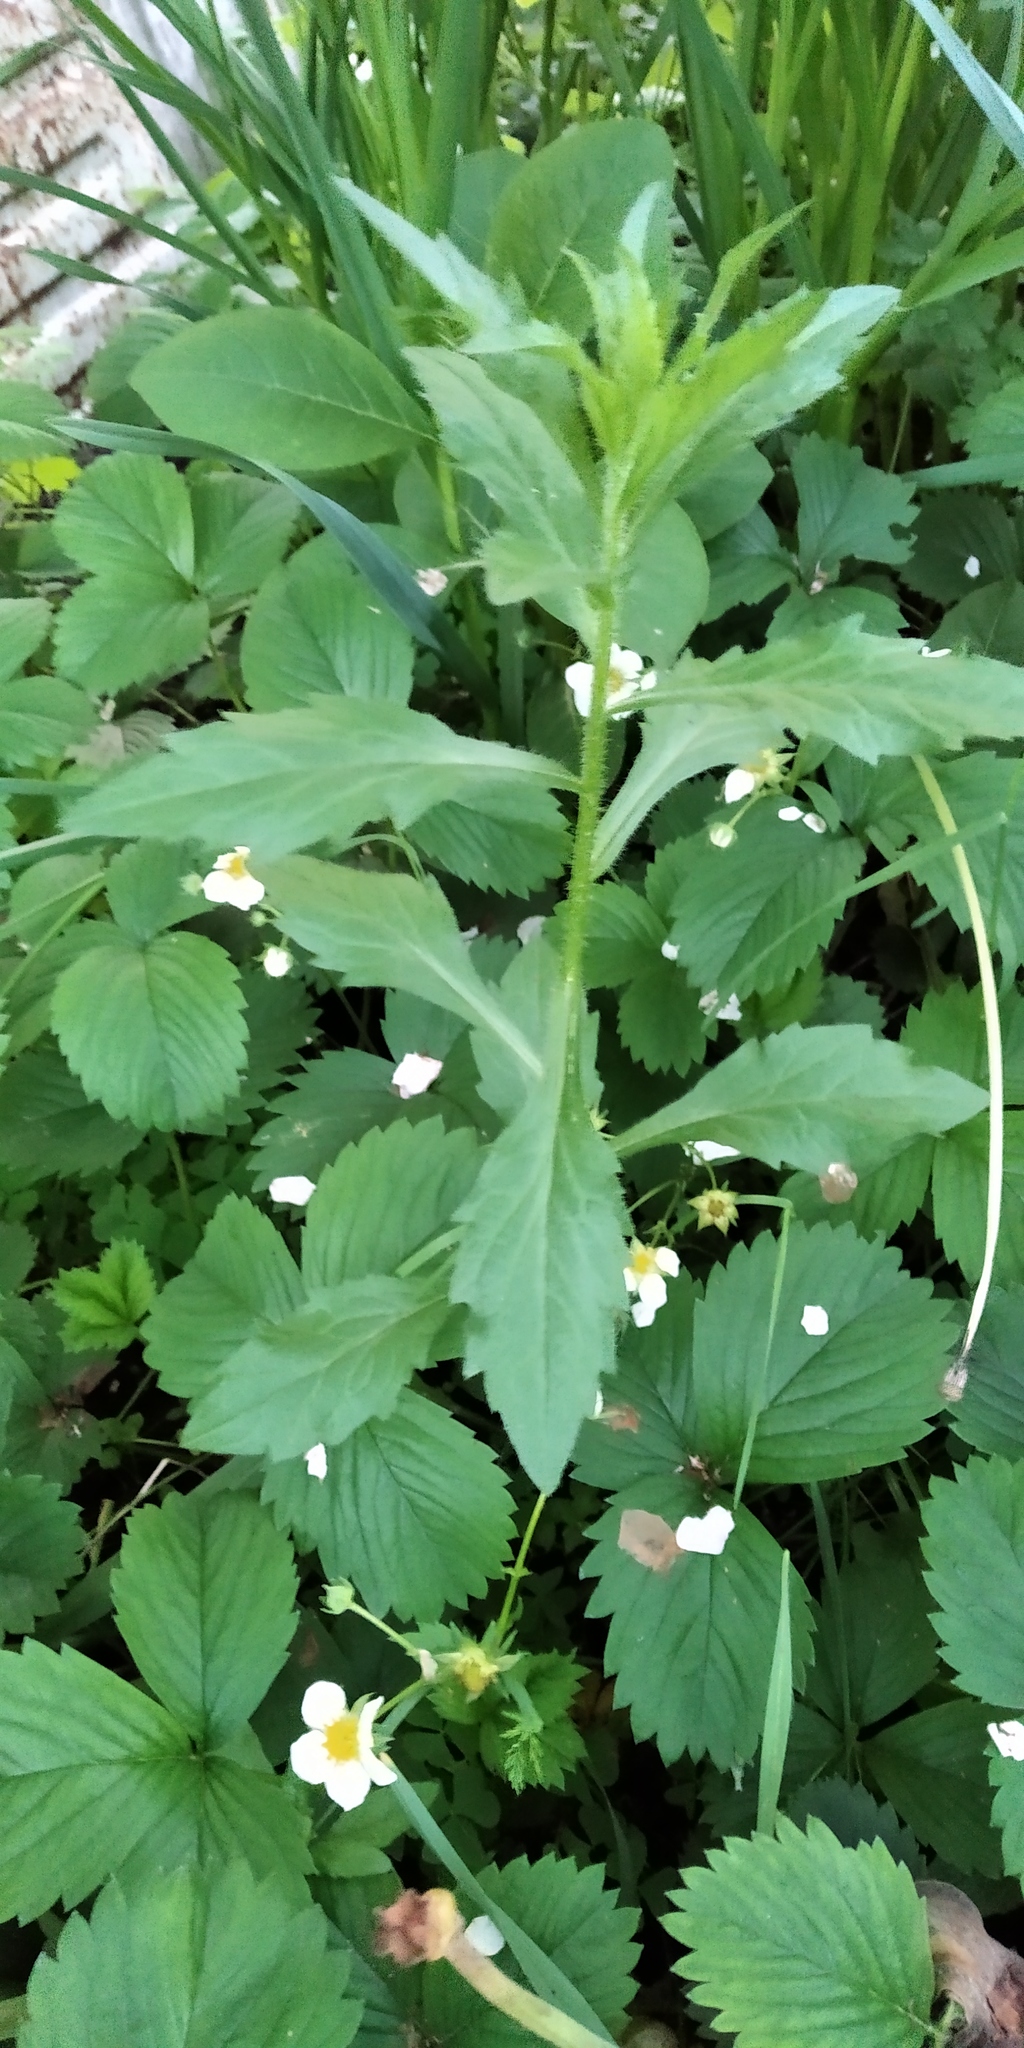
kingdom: Plantae
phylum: Tracheophyta
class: Magnoliopsida
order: Asterales
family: Asteraceae
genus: Erigeron
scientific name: Erigeron annuus
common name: Tall fleabane
